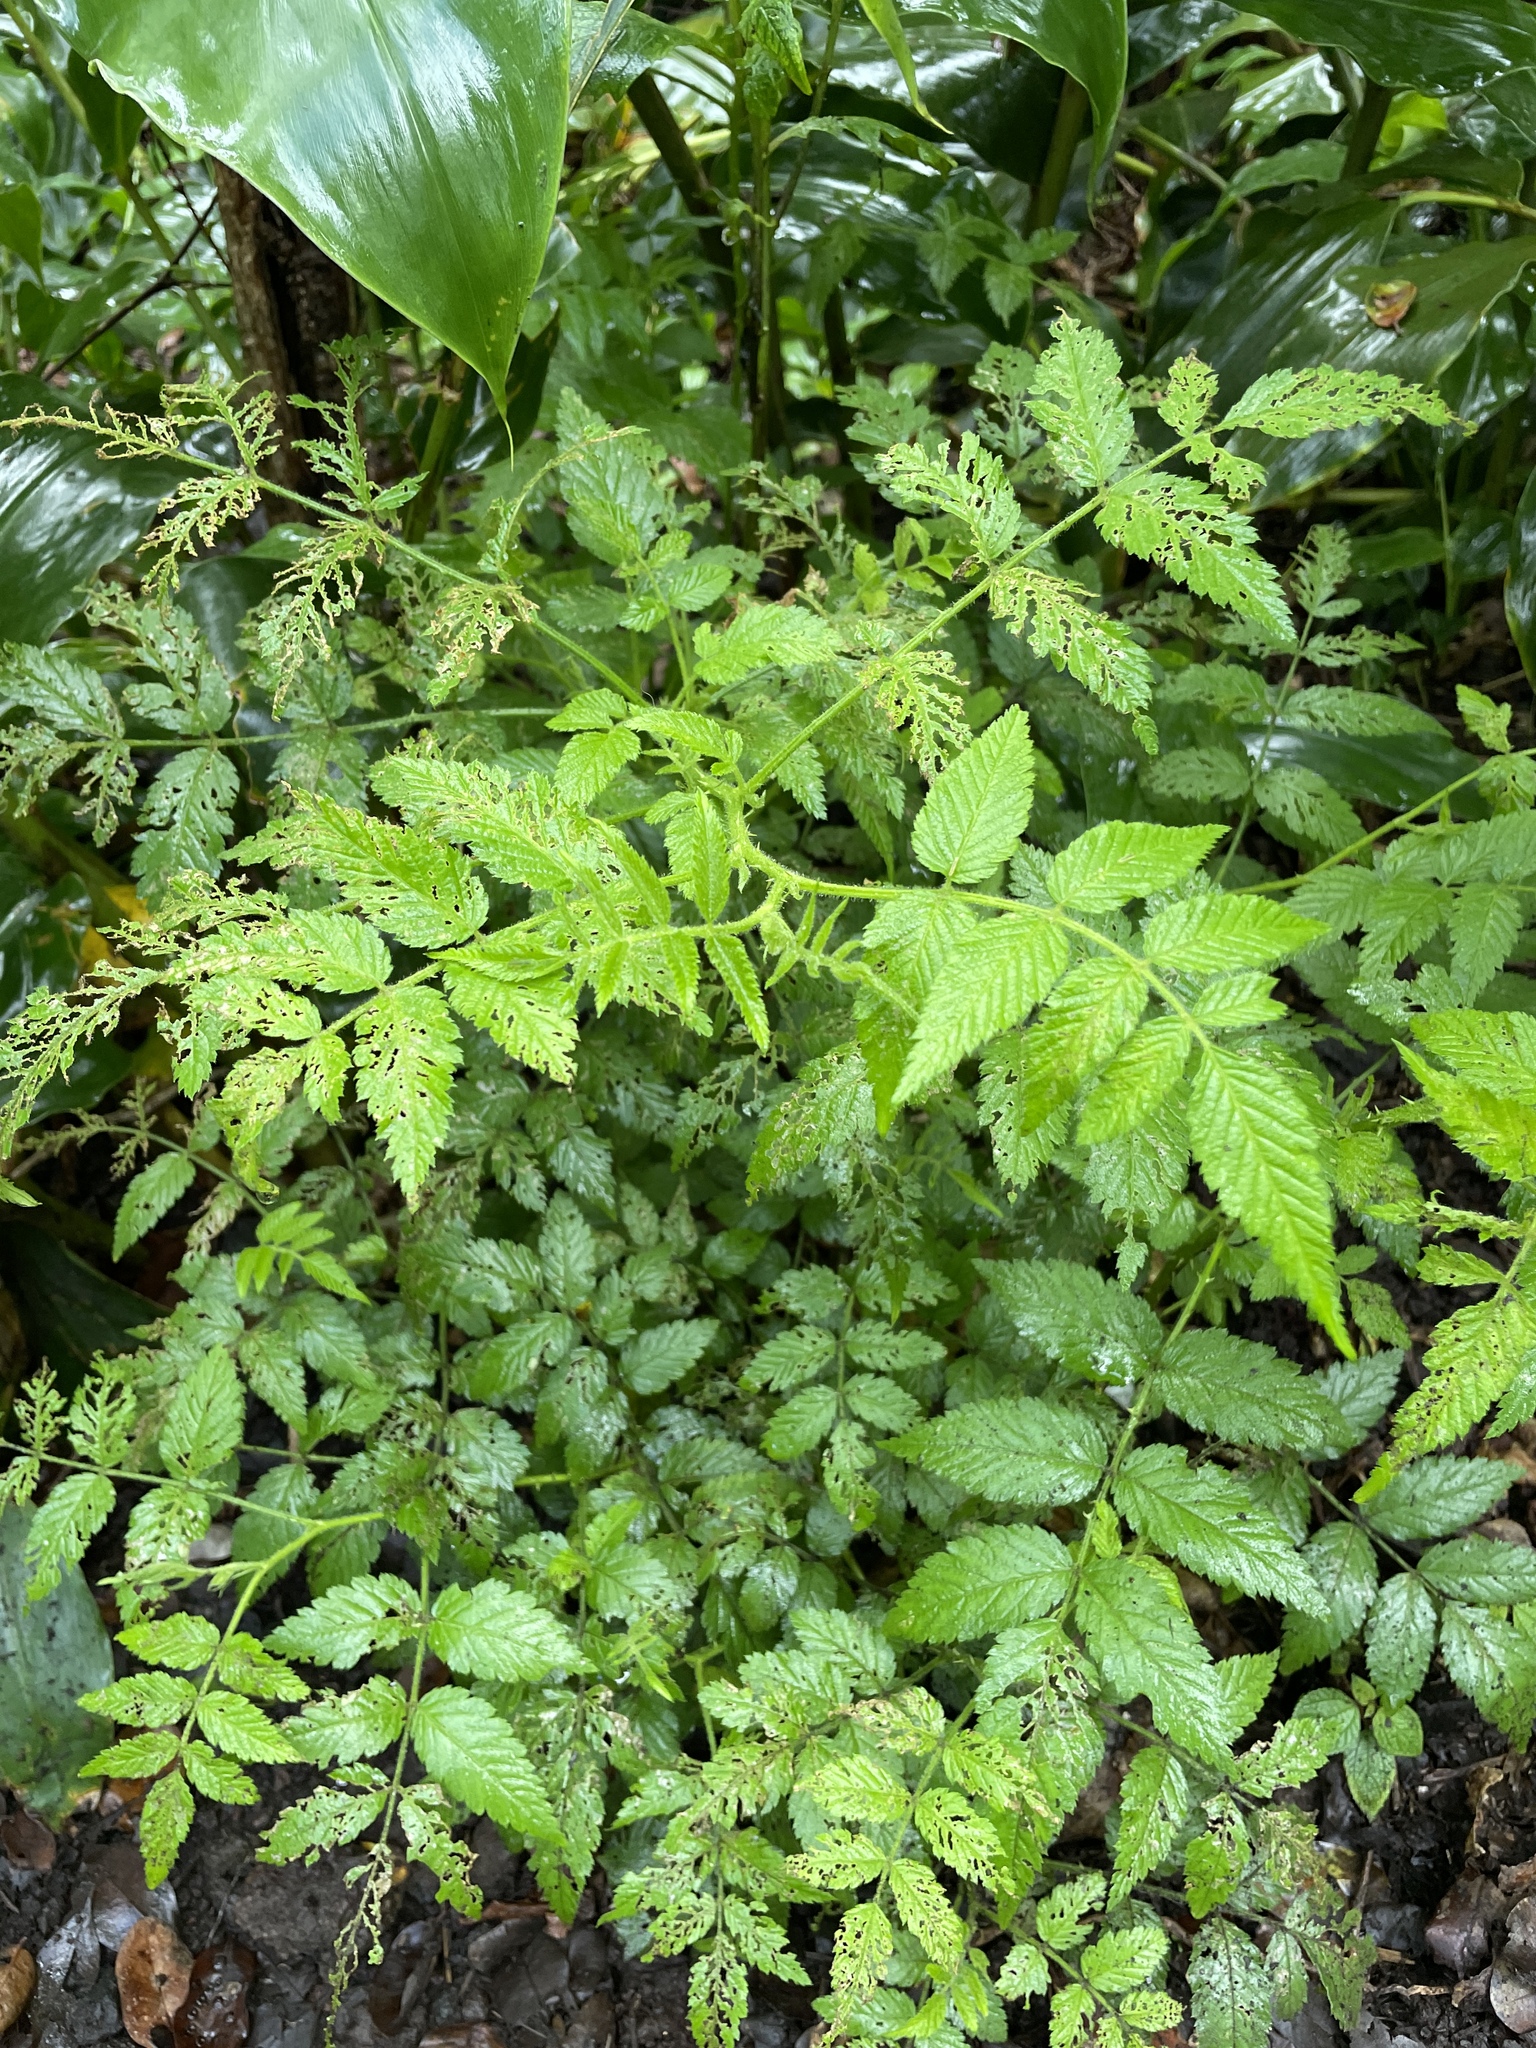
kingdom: Plantae
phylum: Tracheophyta
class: Magnoliopsida
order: Rosales
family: Rosaceae
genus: Rubus
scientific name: Rubus rosifolius
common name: Roseleaf raspberry
